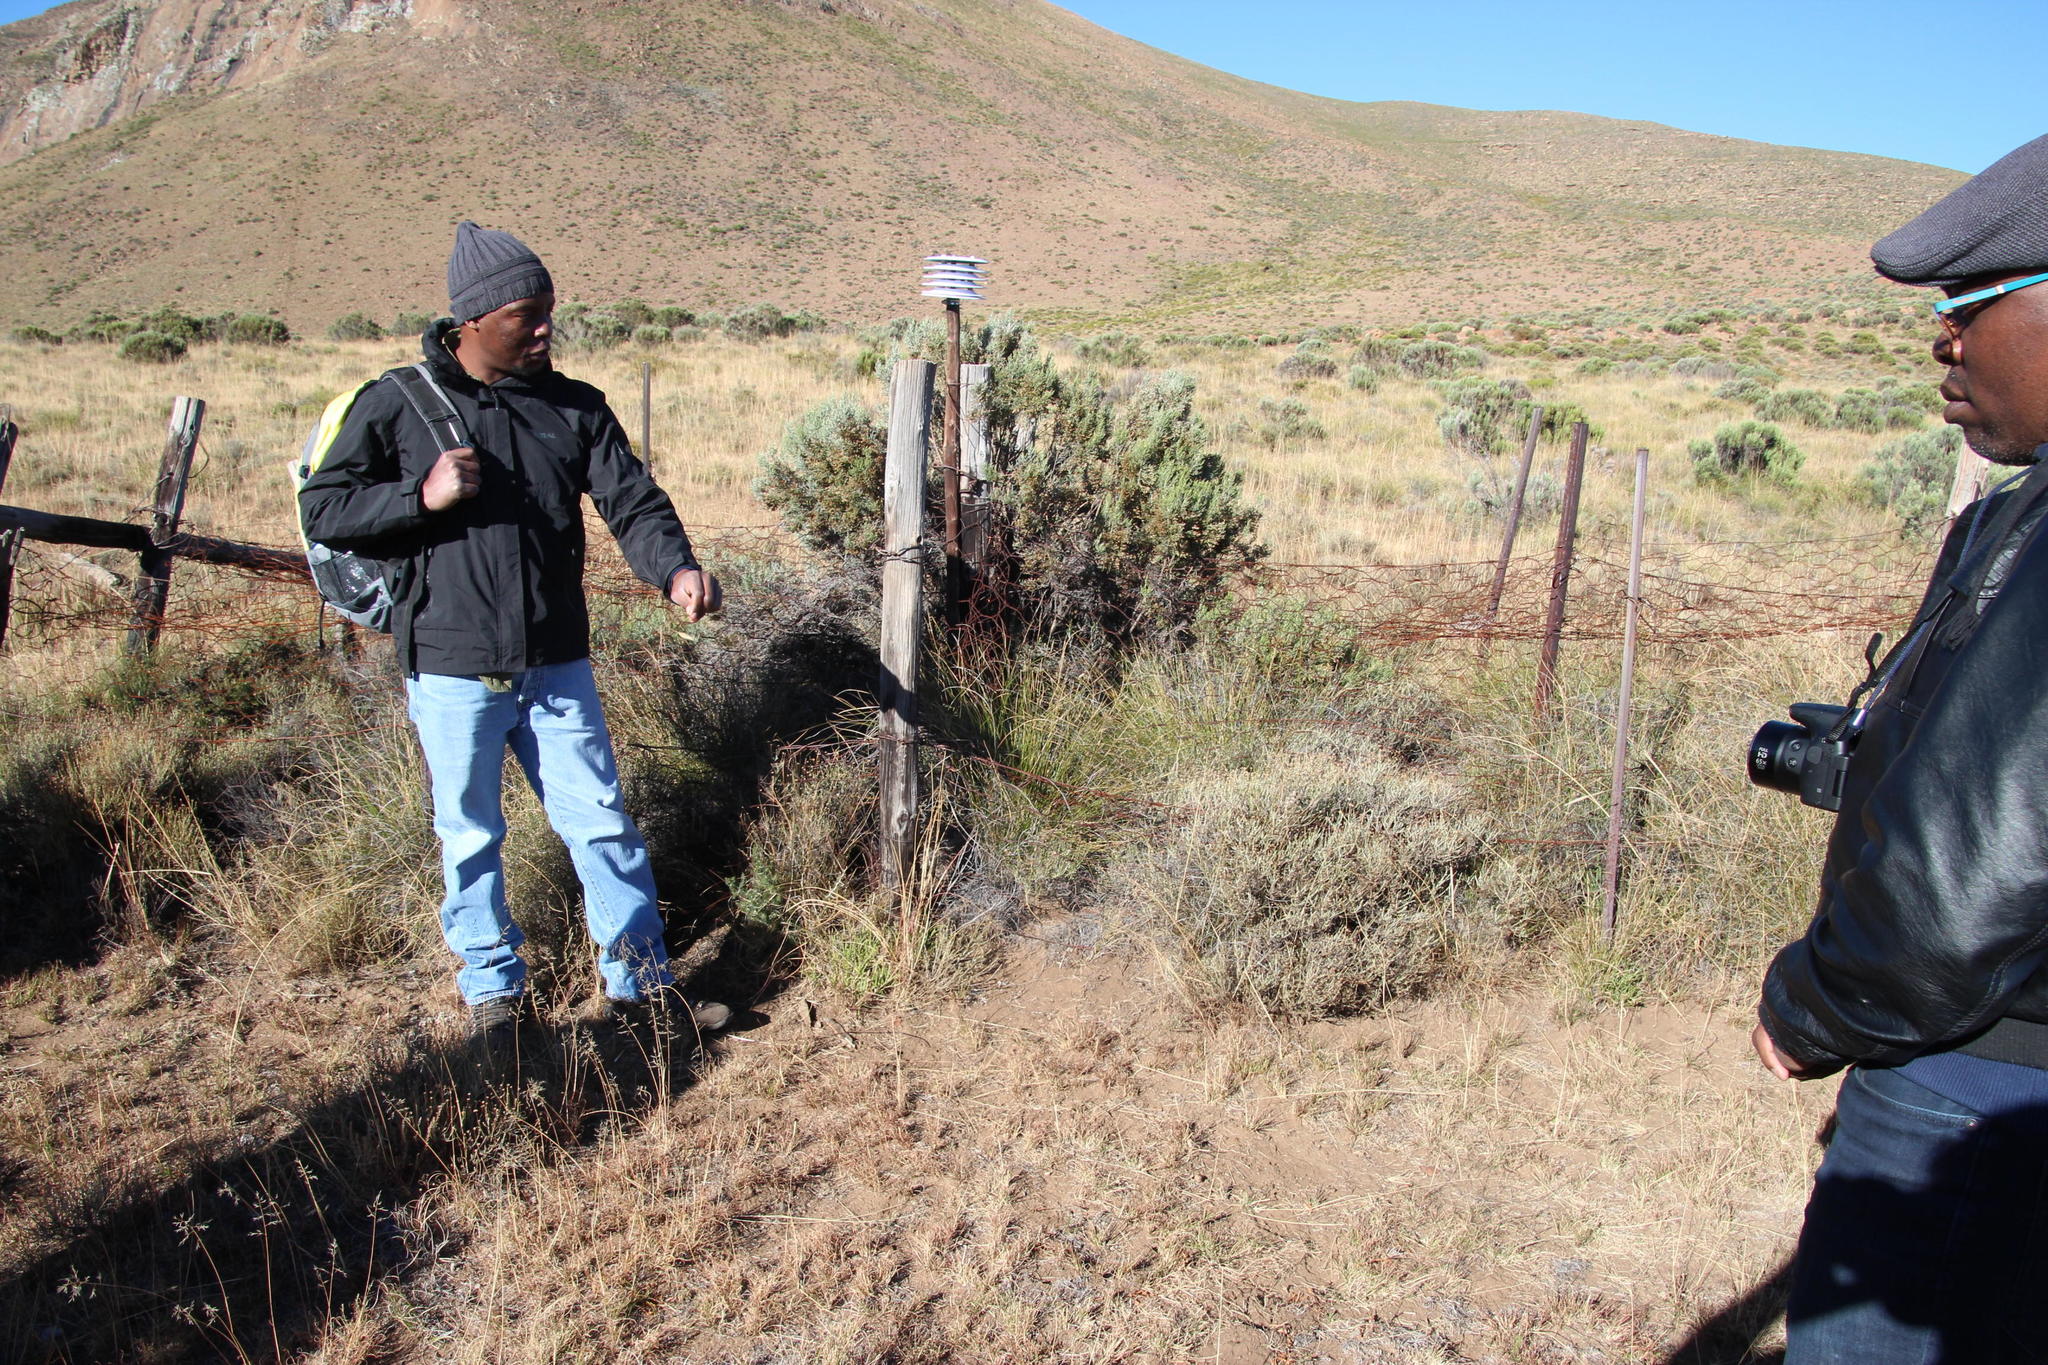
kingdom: Plantae
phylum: Tracheophyta
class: Liliopsida
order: Poales
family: Poaceae
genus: Tenaxia
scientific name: Tenaxia disticha
